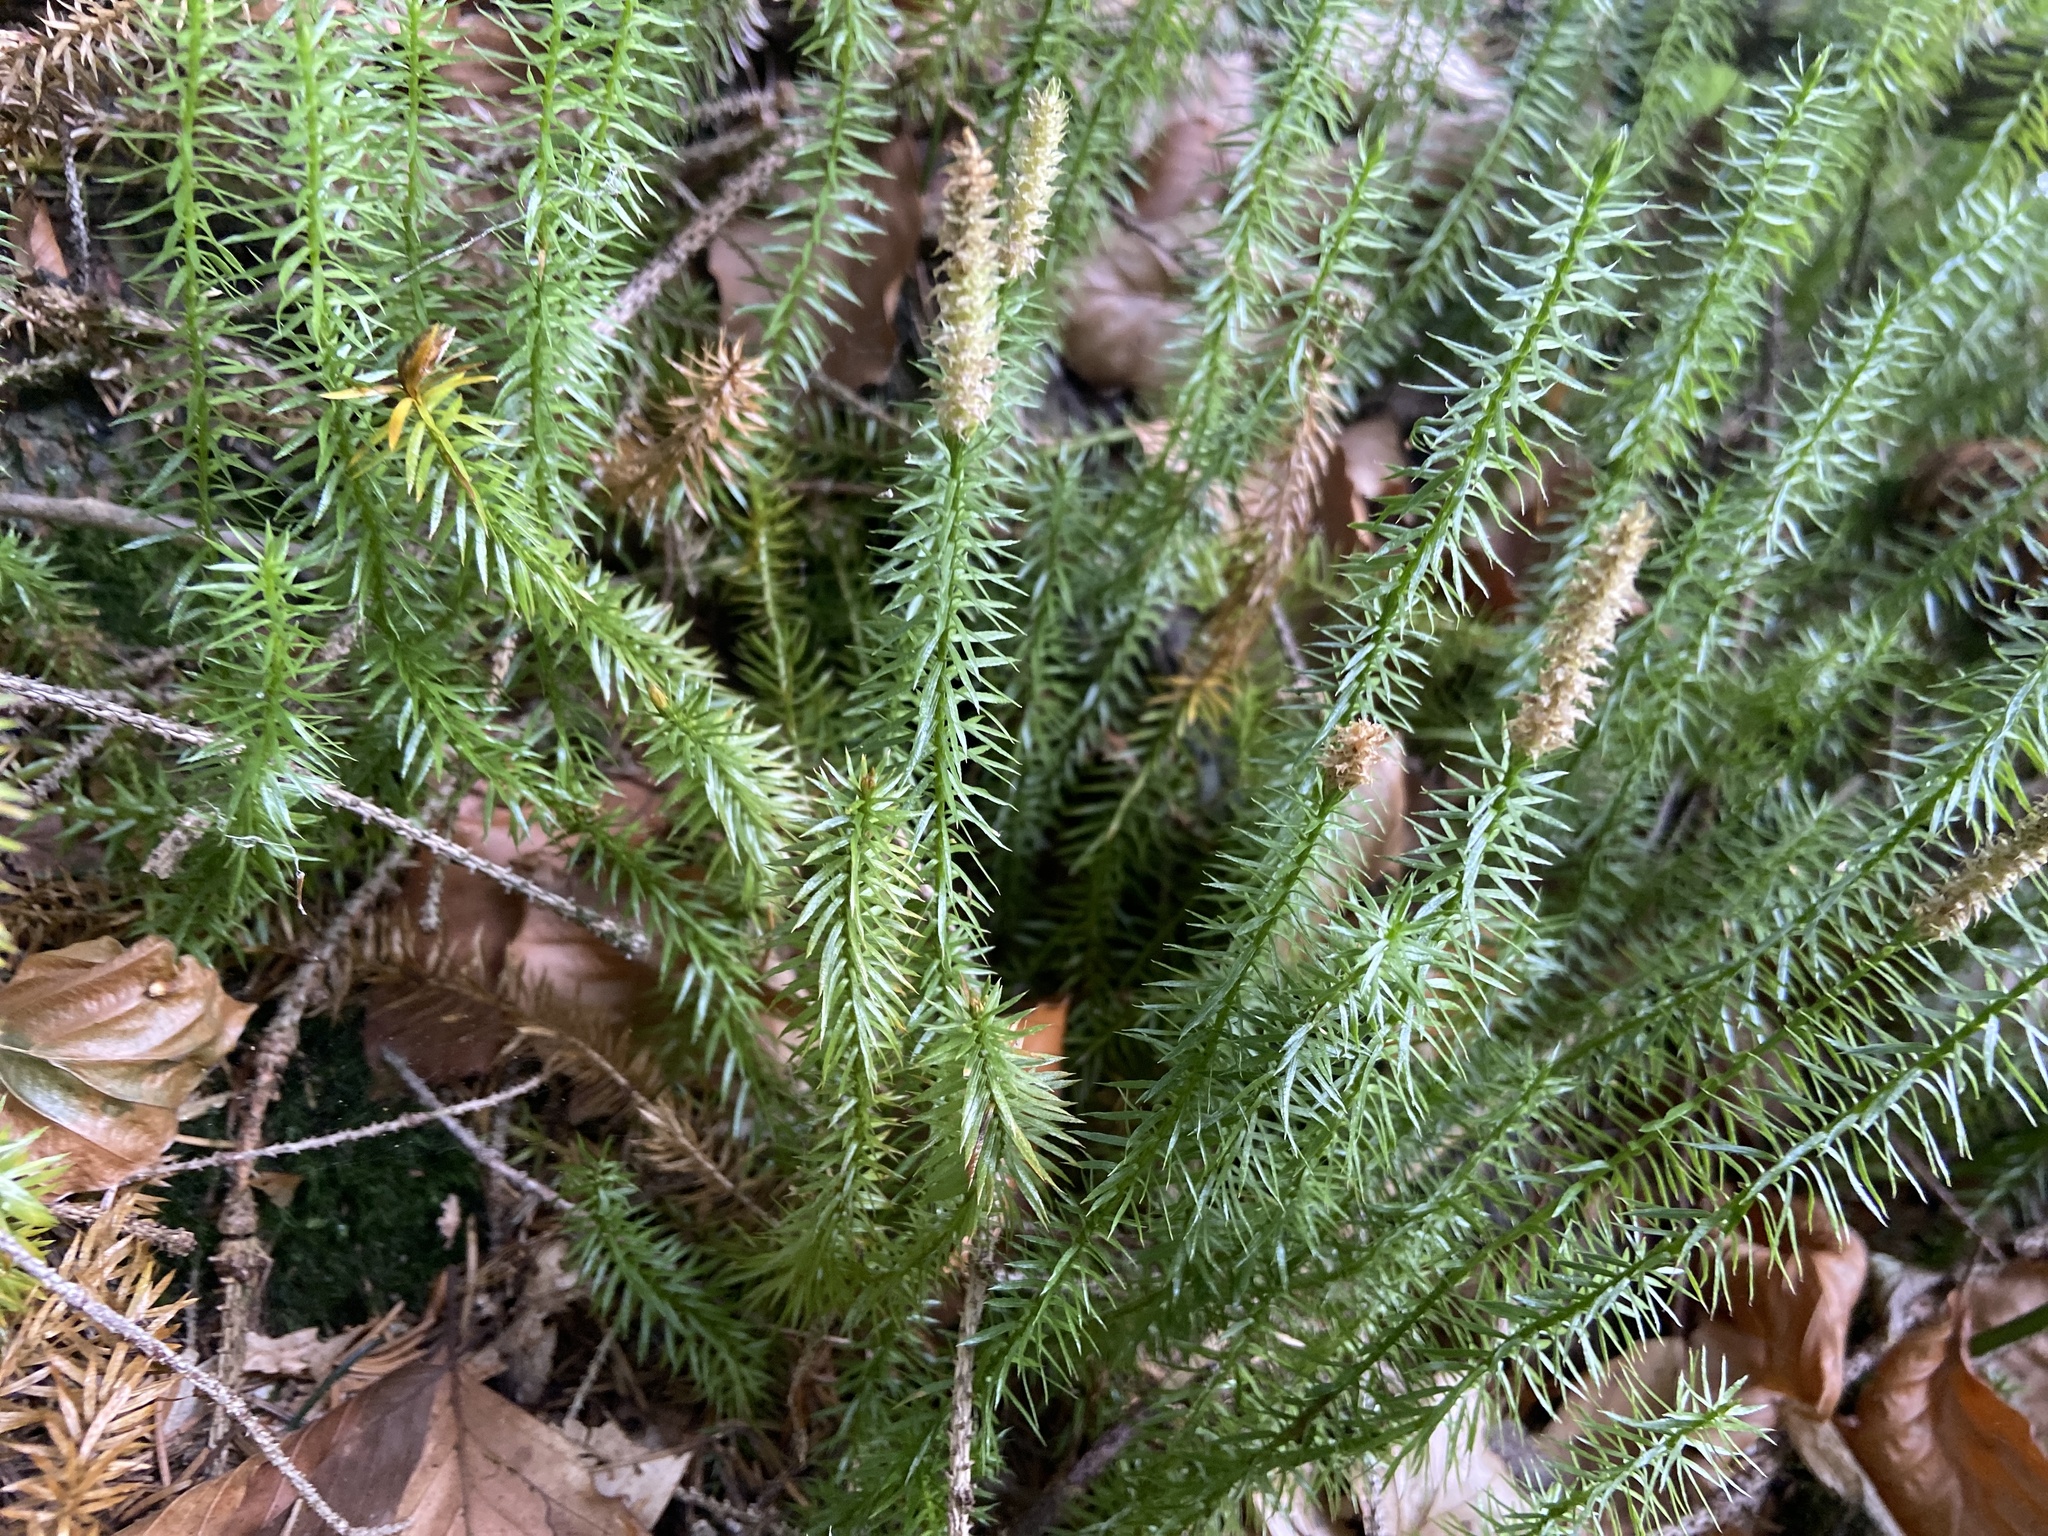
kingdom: Plantae
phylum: Tracheophyta
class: Lycopodiopsida
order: Lycopodiales
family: Lycopodiaceae
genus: Spinulum
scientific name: Spinulum annotinum
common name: Interrupted club-moss
